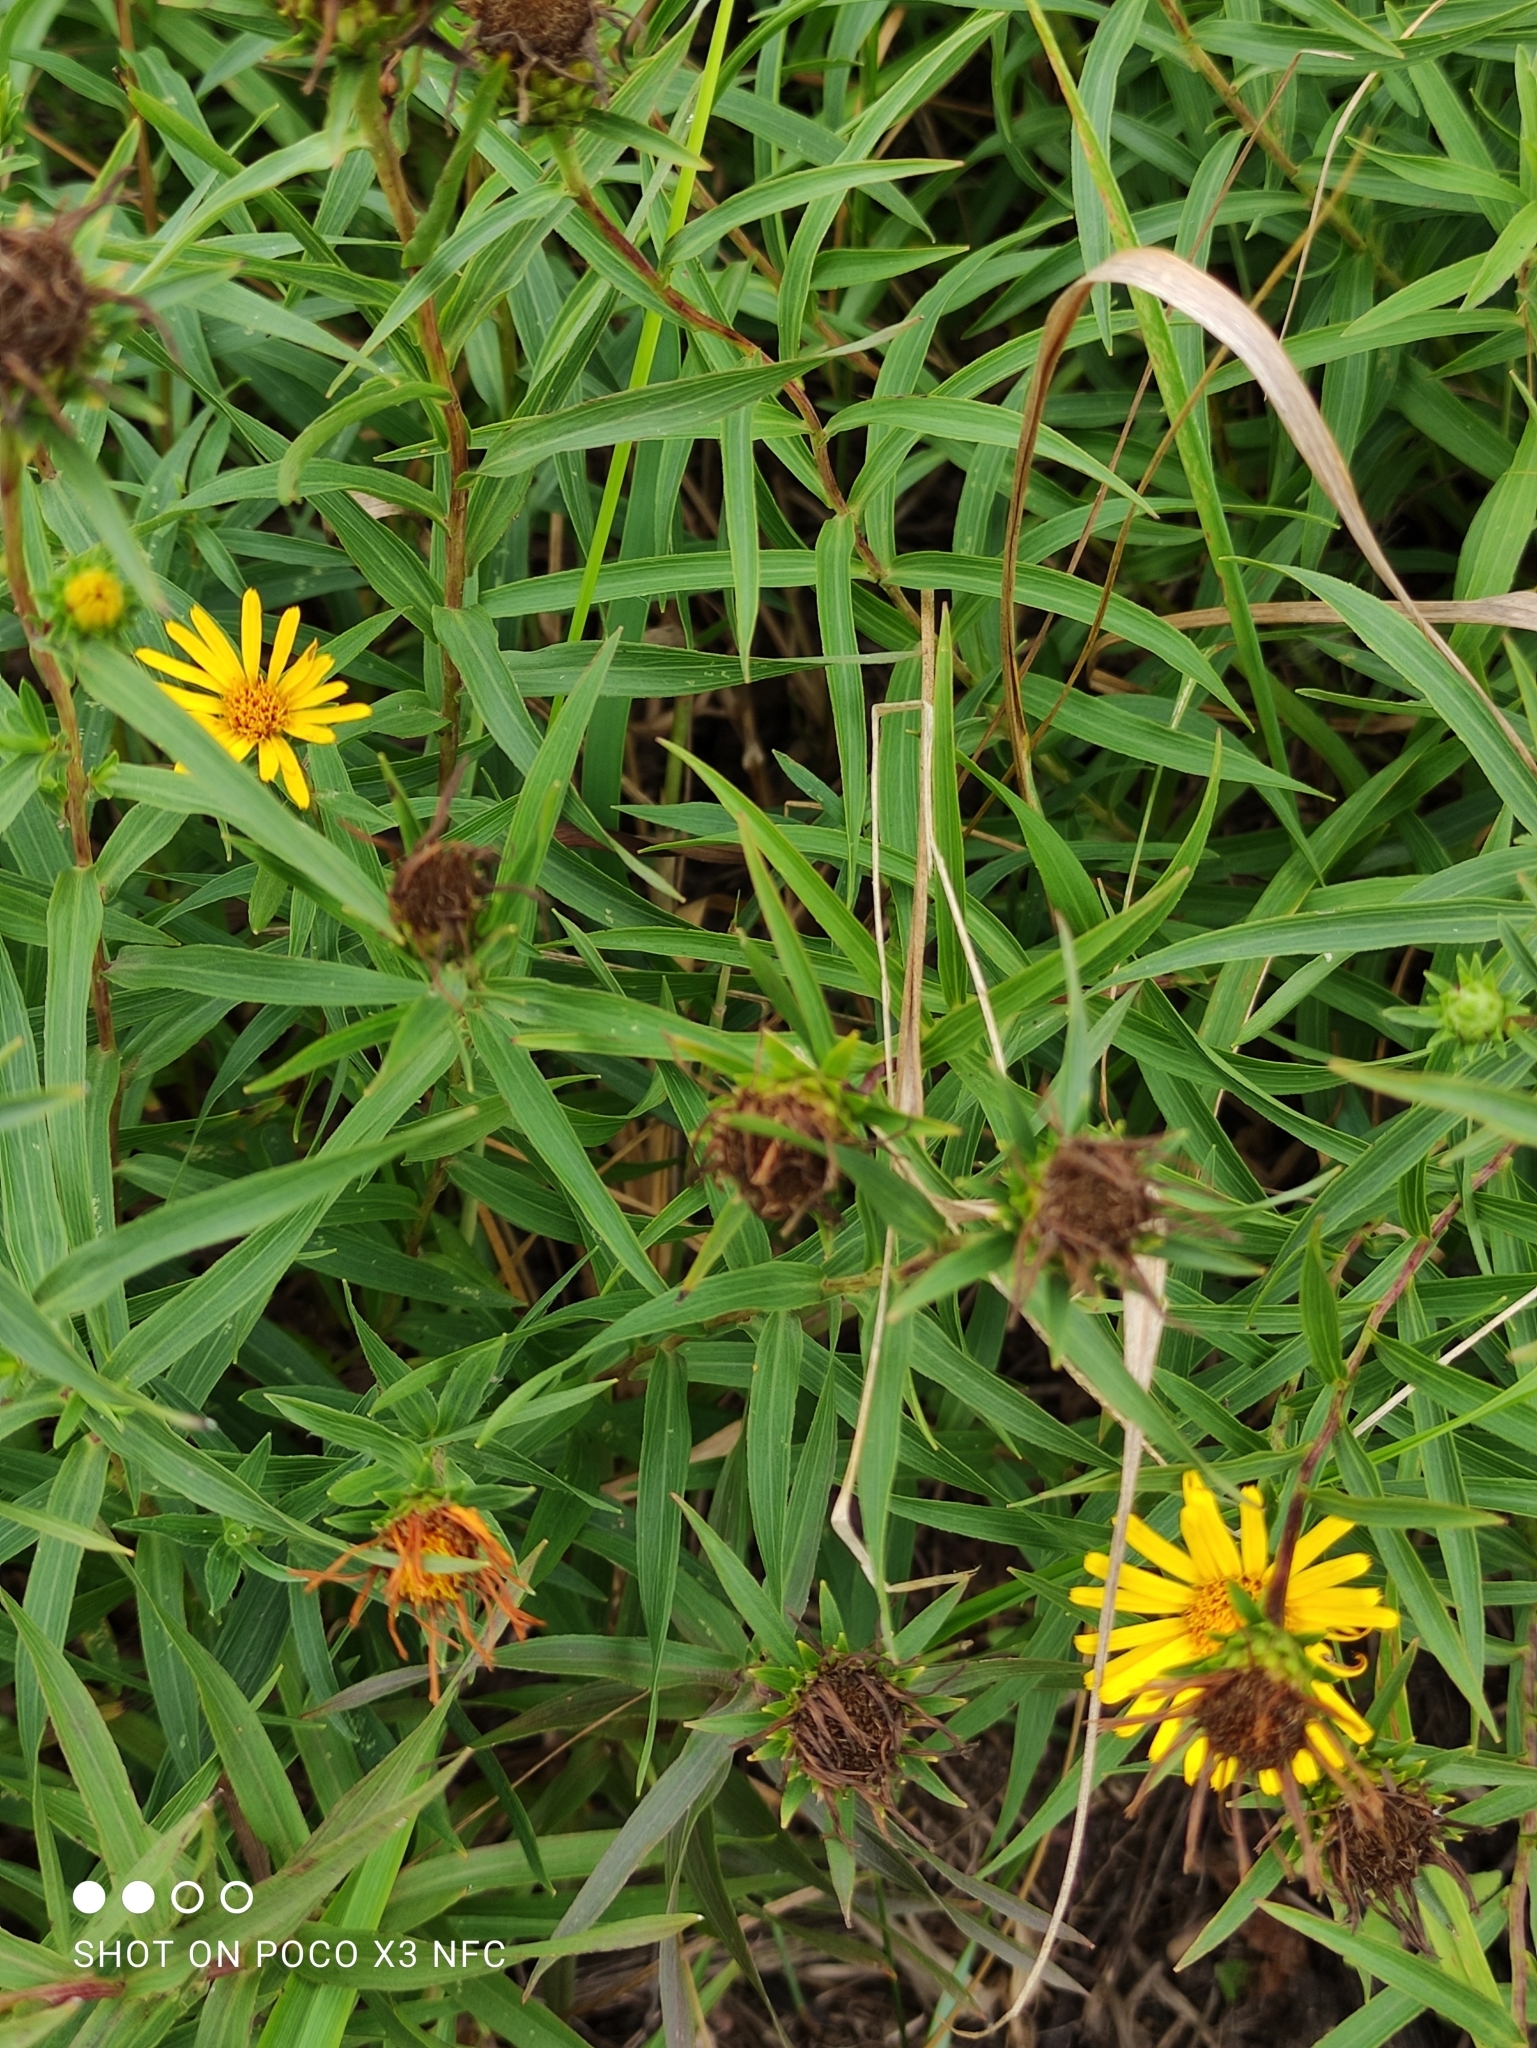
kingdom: Plantae
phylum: Tracheophyta
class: Magnoliopsida
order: Asterales
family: Asteraceae
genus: Pentanema
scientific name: Pentanema salicinum
